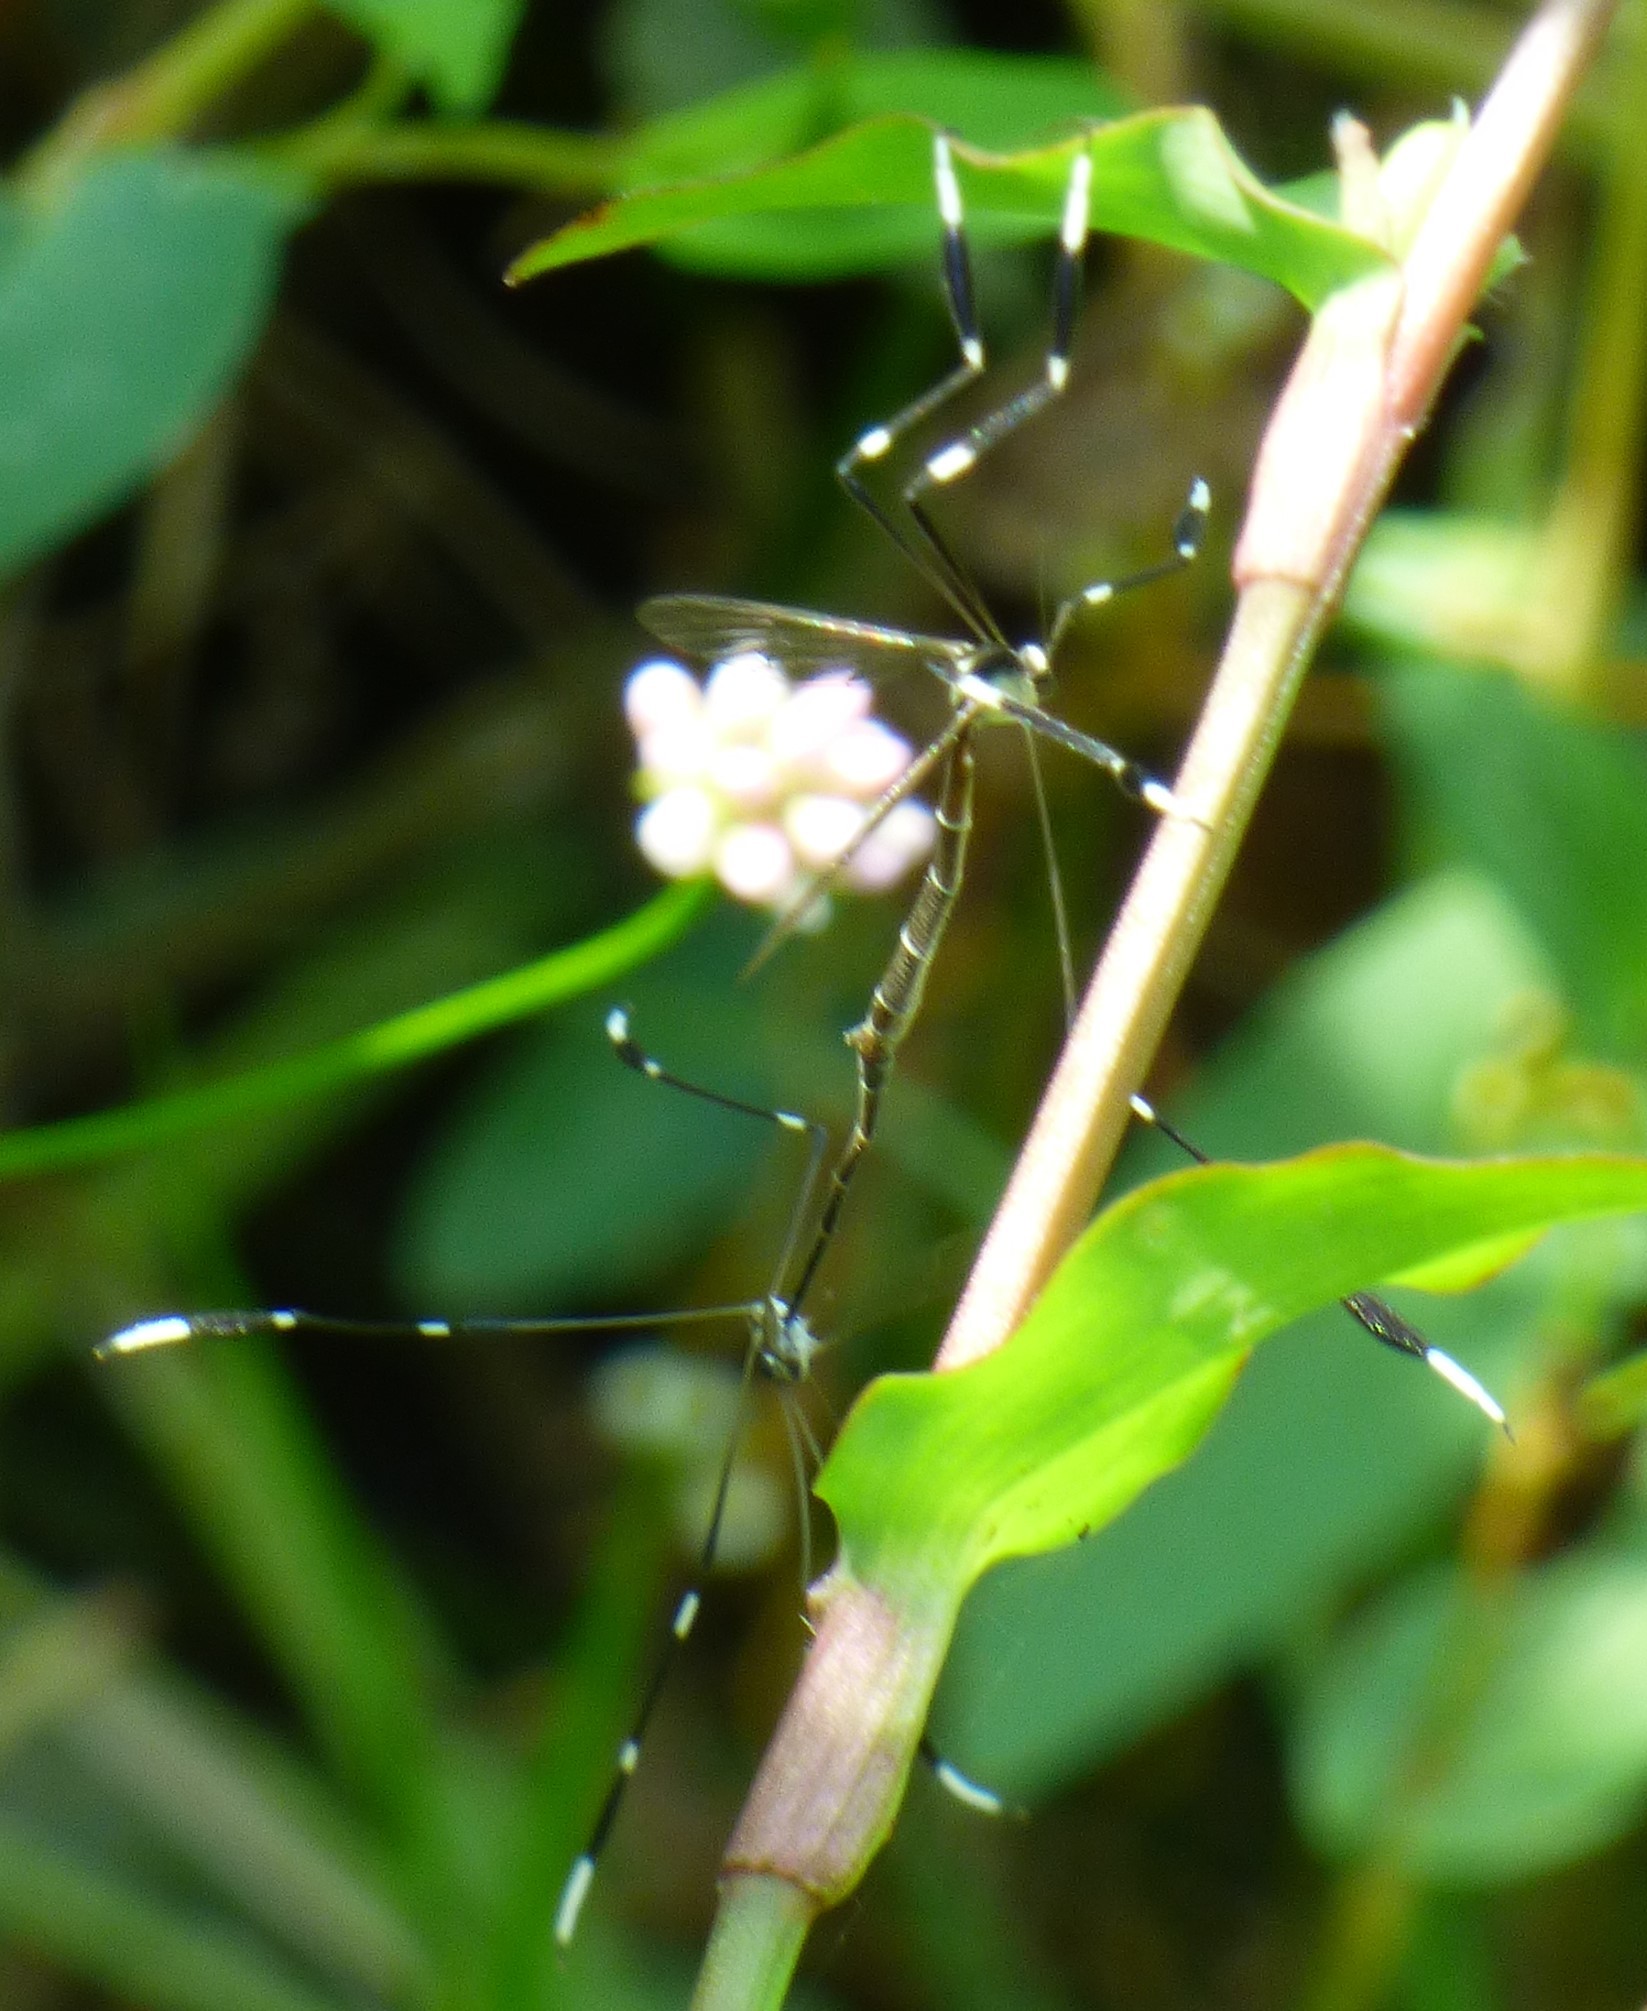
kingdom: Animalia
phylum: Arthropoda
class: Insecta
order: Diptera
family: Ptychopteridae
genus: Bittacomorpha
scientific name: Bittacomorpha clavipes
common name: Eastern phantom crane fly
